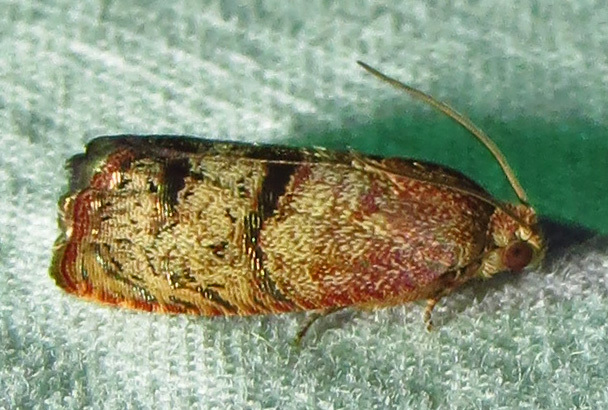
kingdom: Animalia
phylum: Arthropoda
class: Insecta
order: Lepidoptera
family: Tortricidae
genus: Cydia
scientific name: Cydia latiferreana
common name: Filbertworm moth
